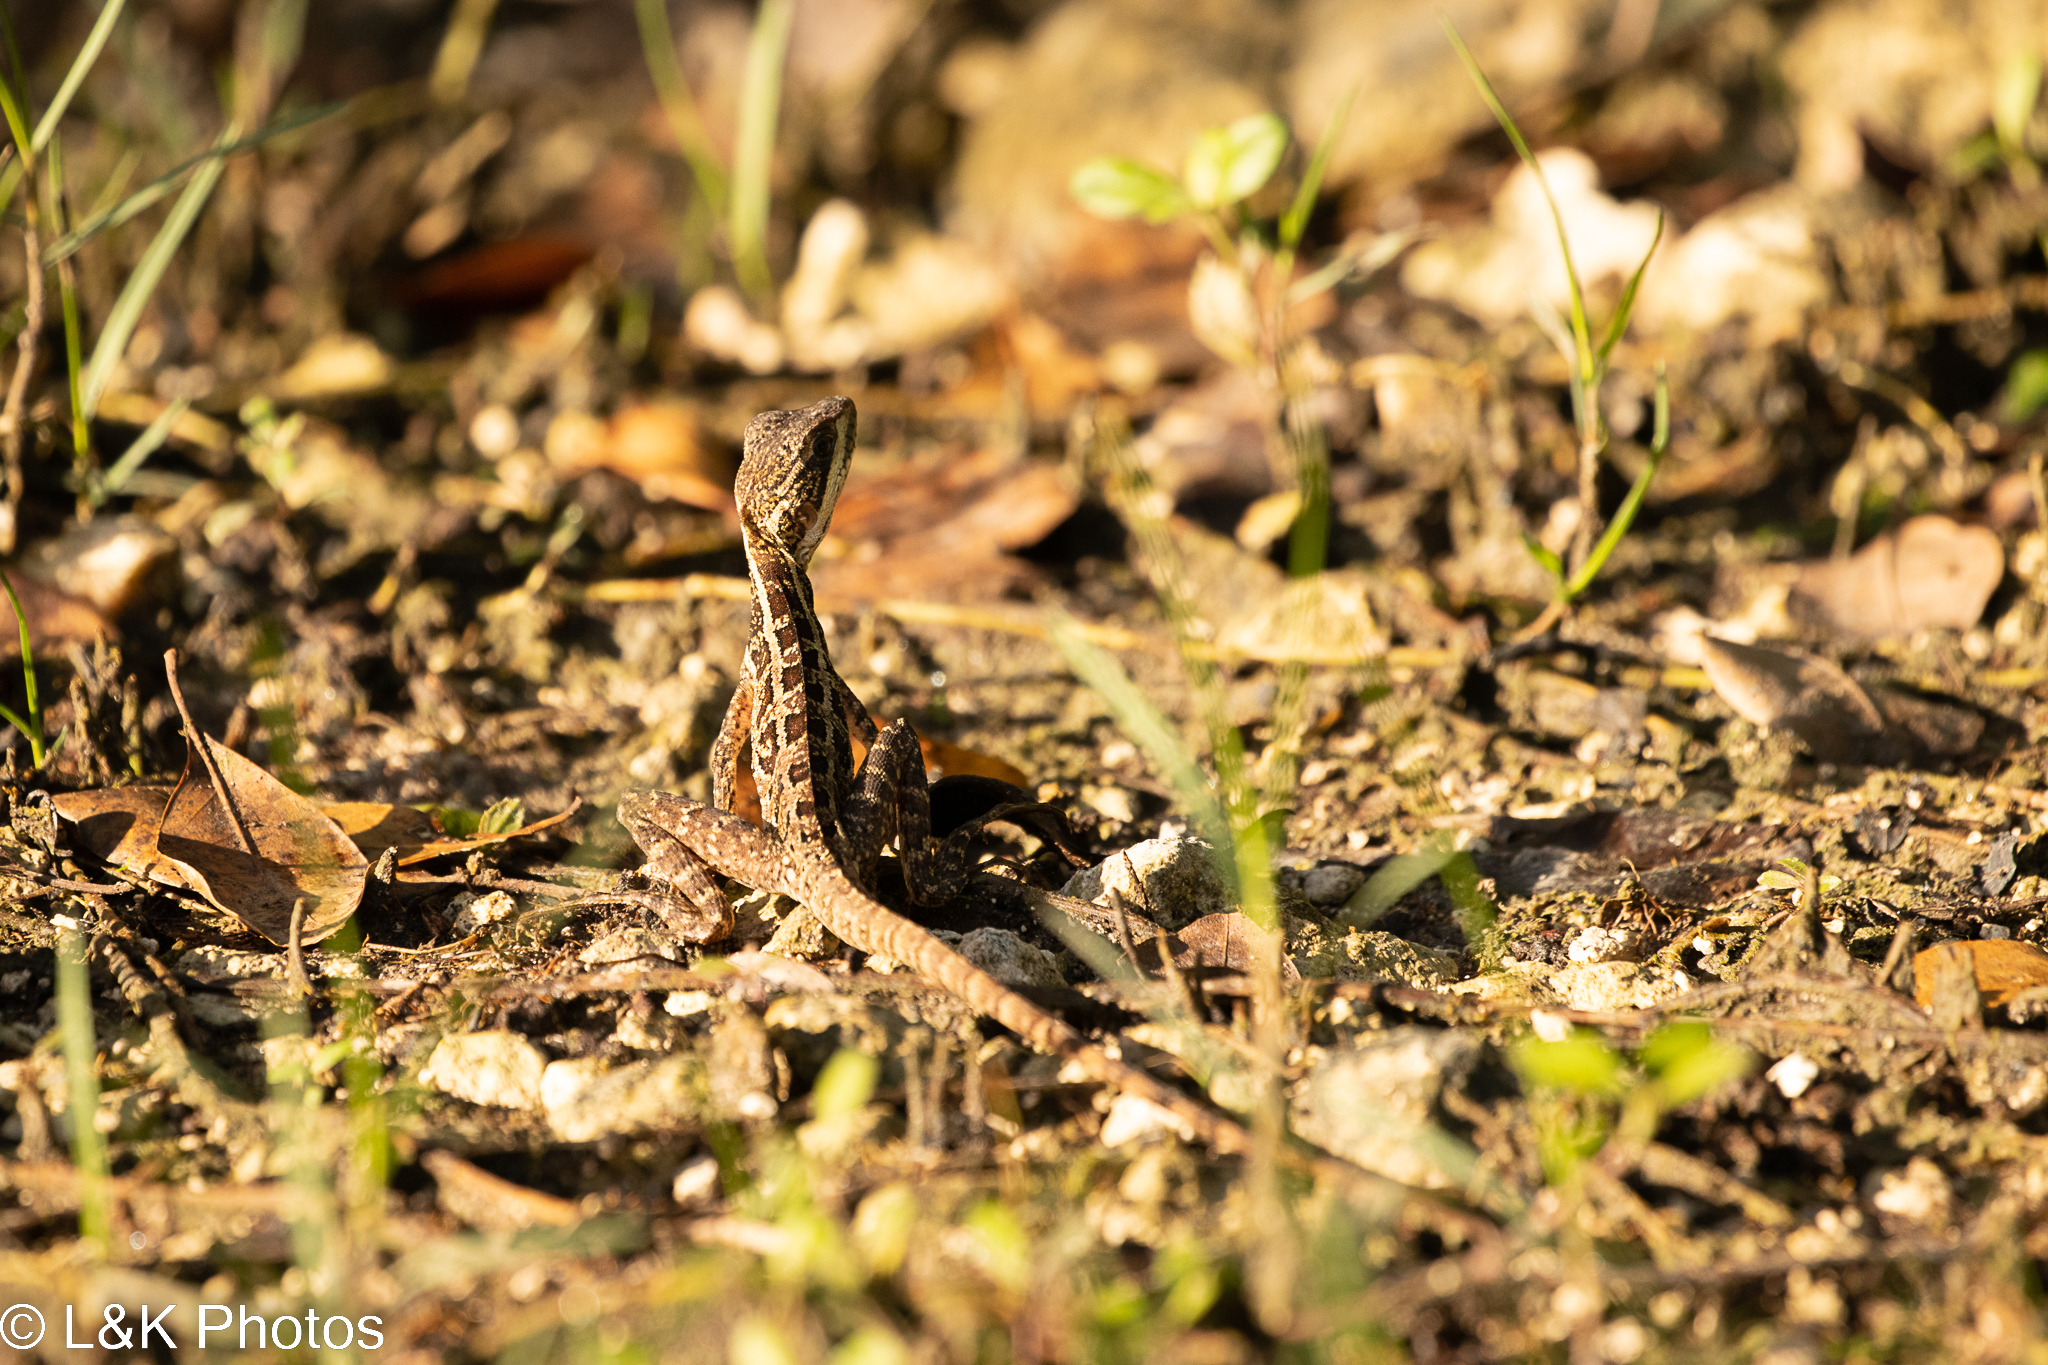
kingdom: Animalia
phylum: Chordata
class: Squamata
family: Corytophanidae
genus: Basiliscus
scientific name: Basiliscus vittatus
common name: Brown basilisk
